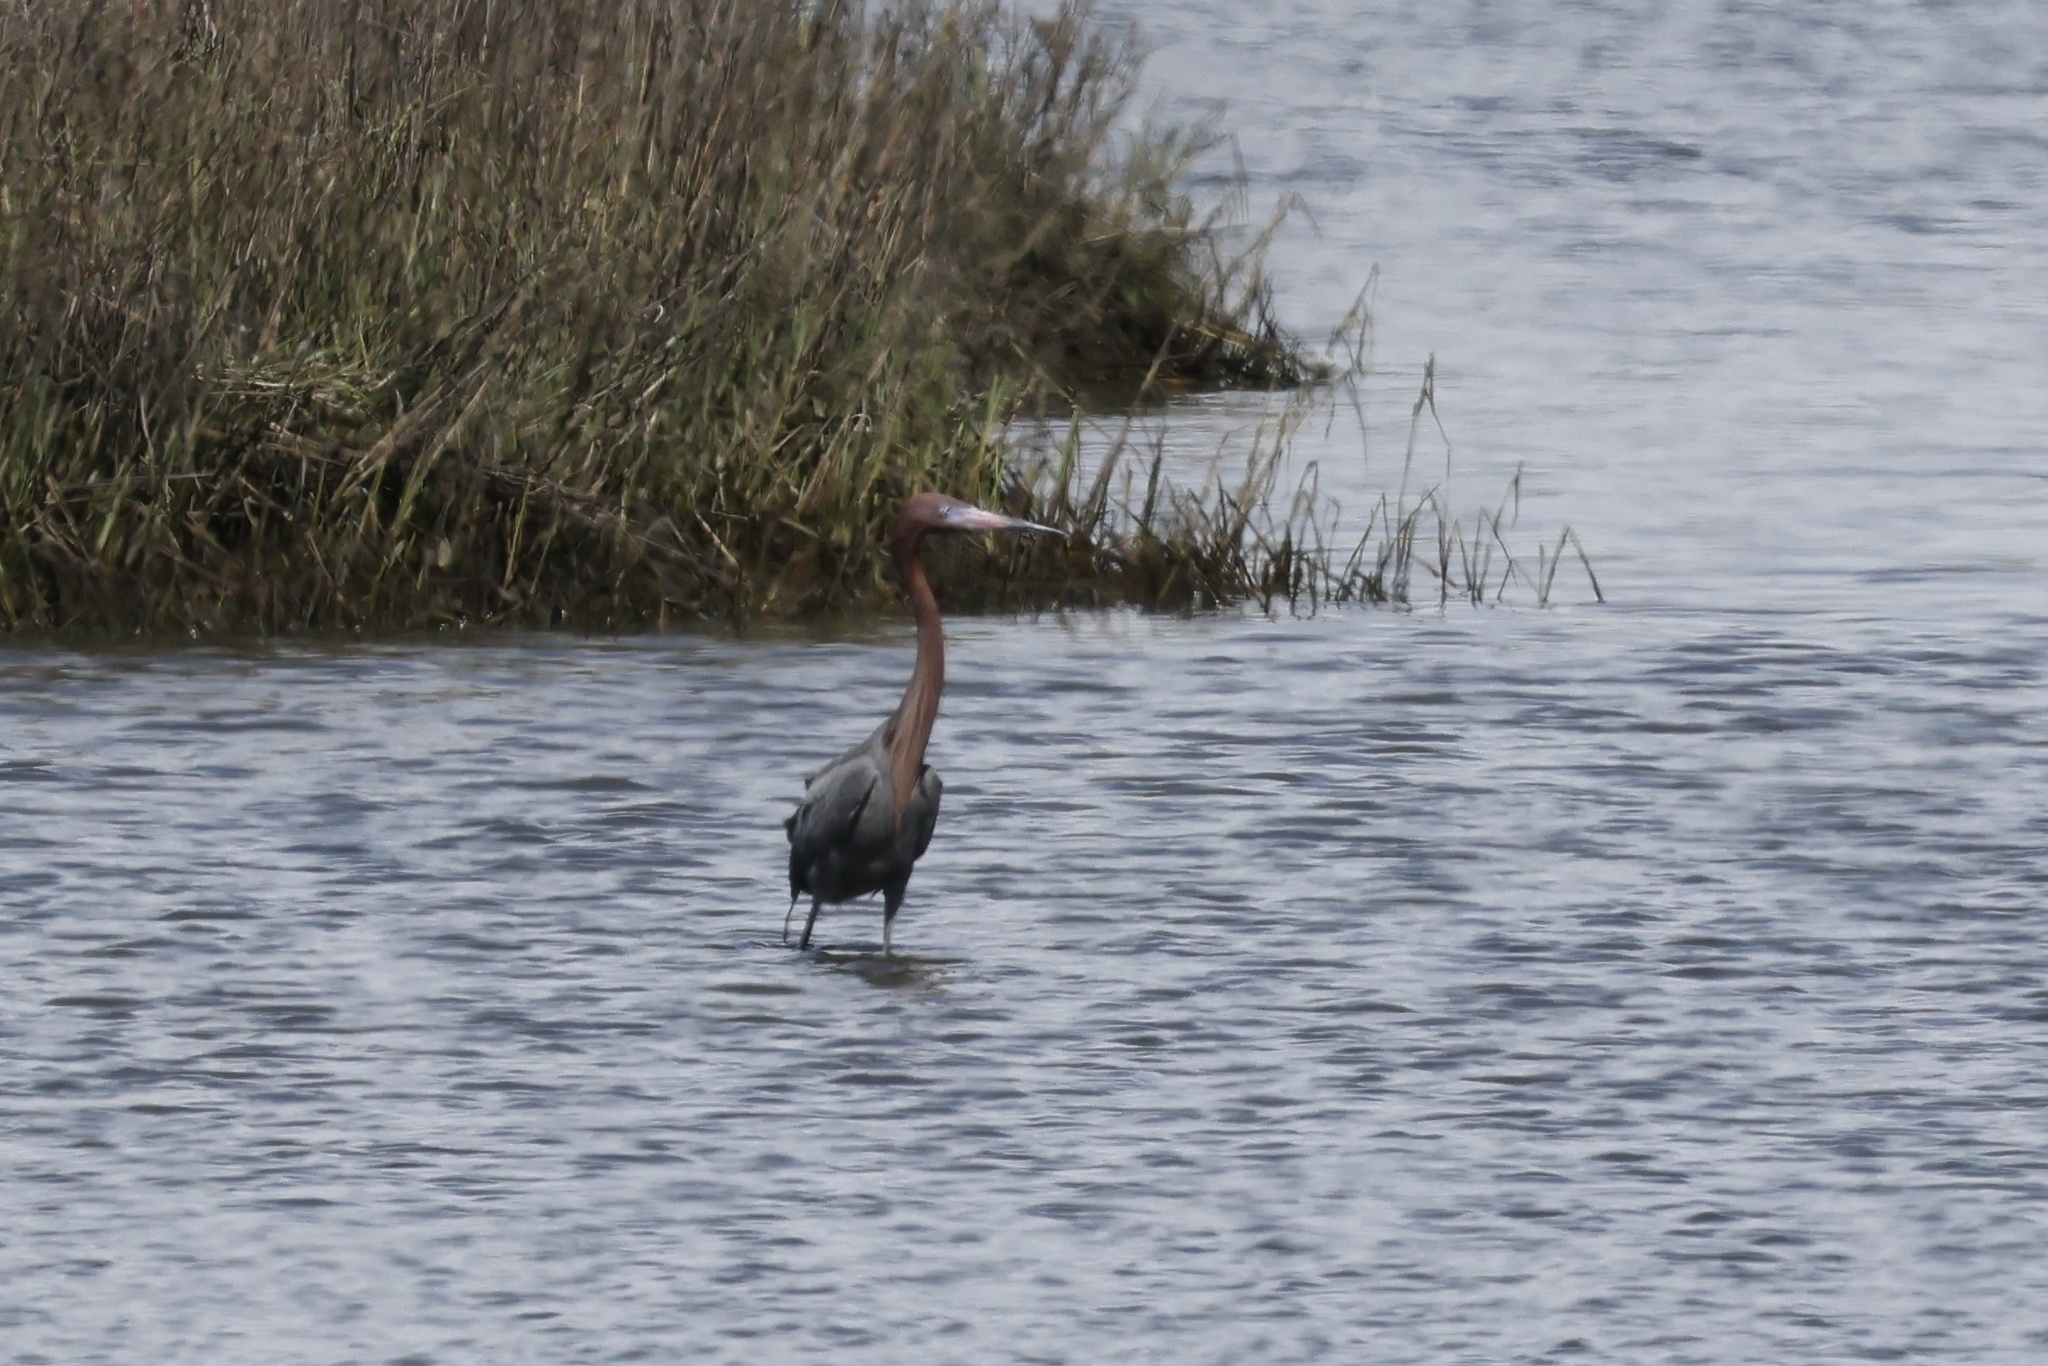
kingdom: Animalia
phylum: Chordata
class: Aves
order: Pelecaniformes
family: Ardeidae
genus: Egretta
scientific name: Egretta rufescens
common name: Reddish egret
